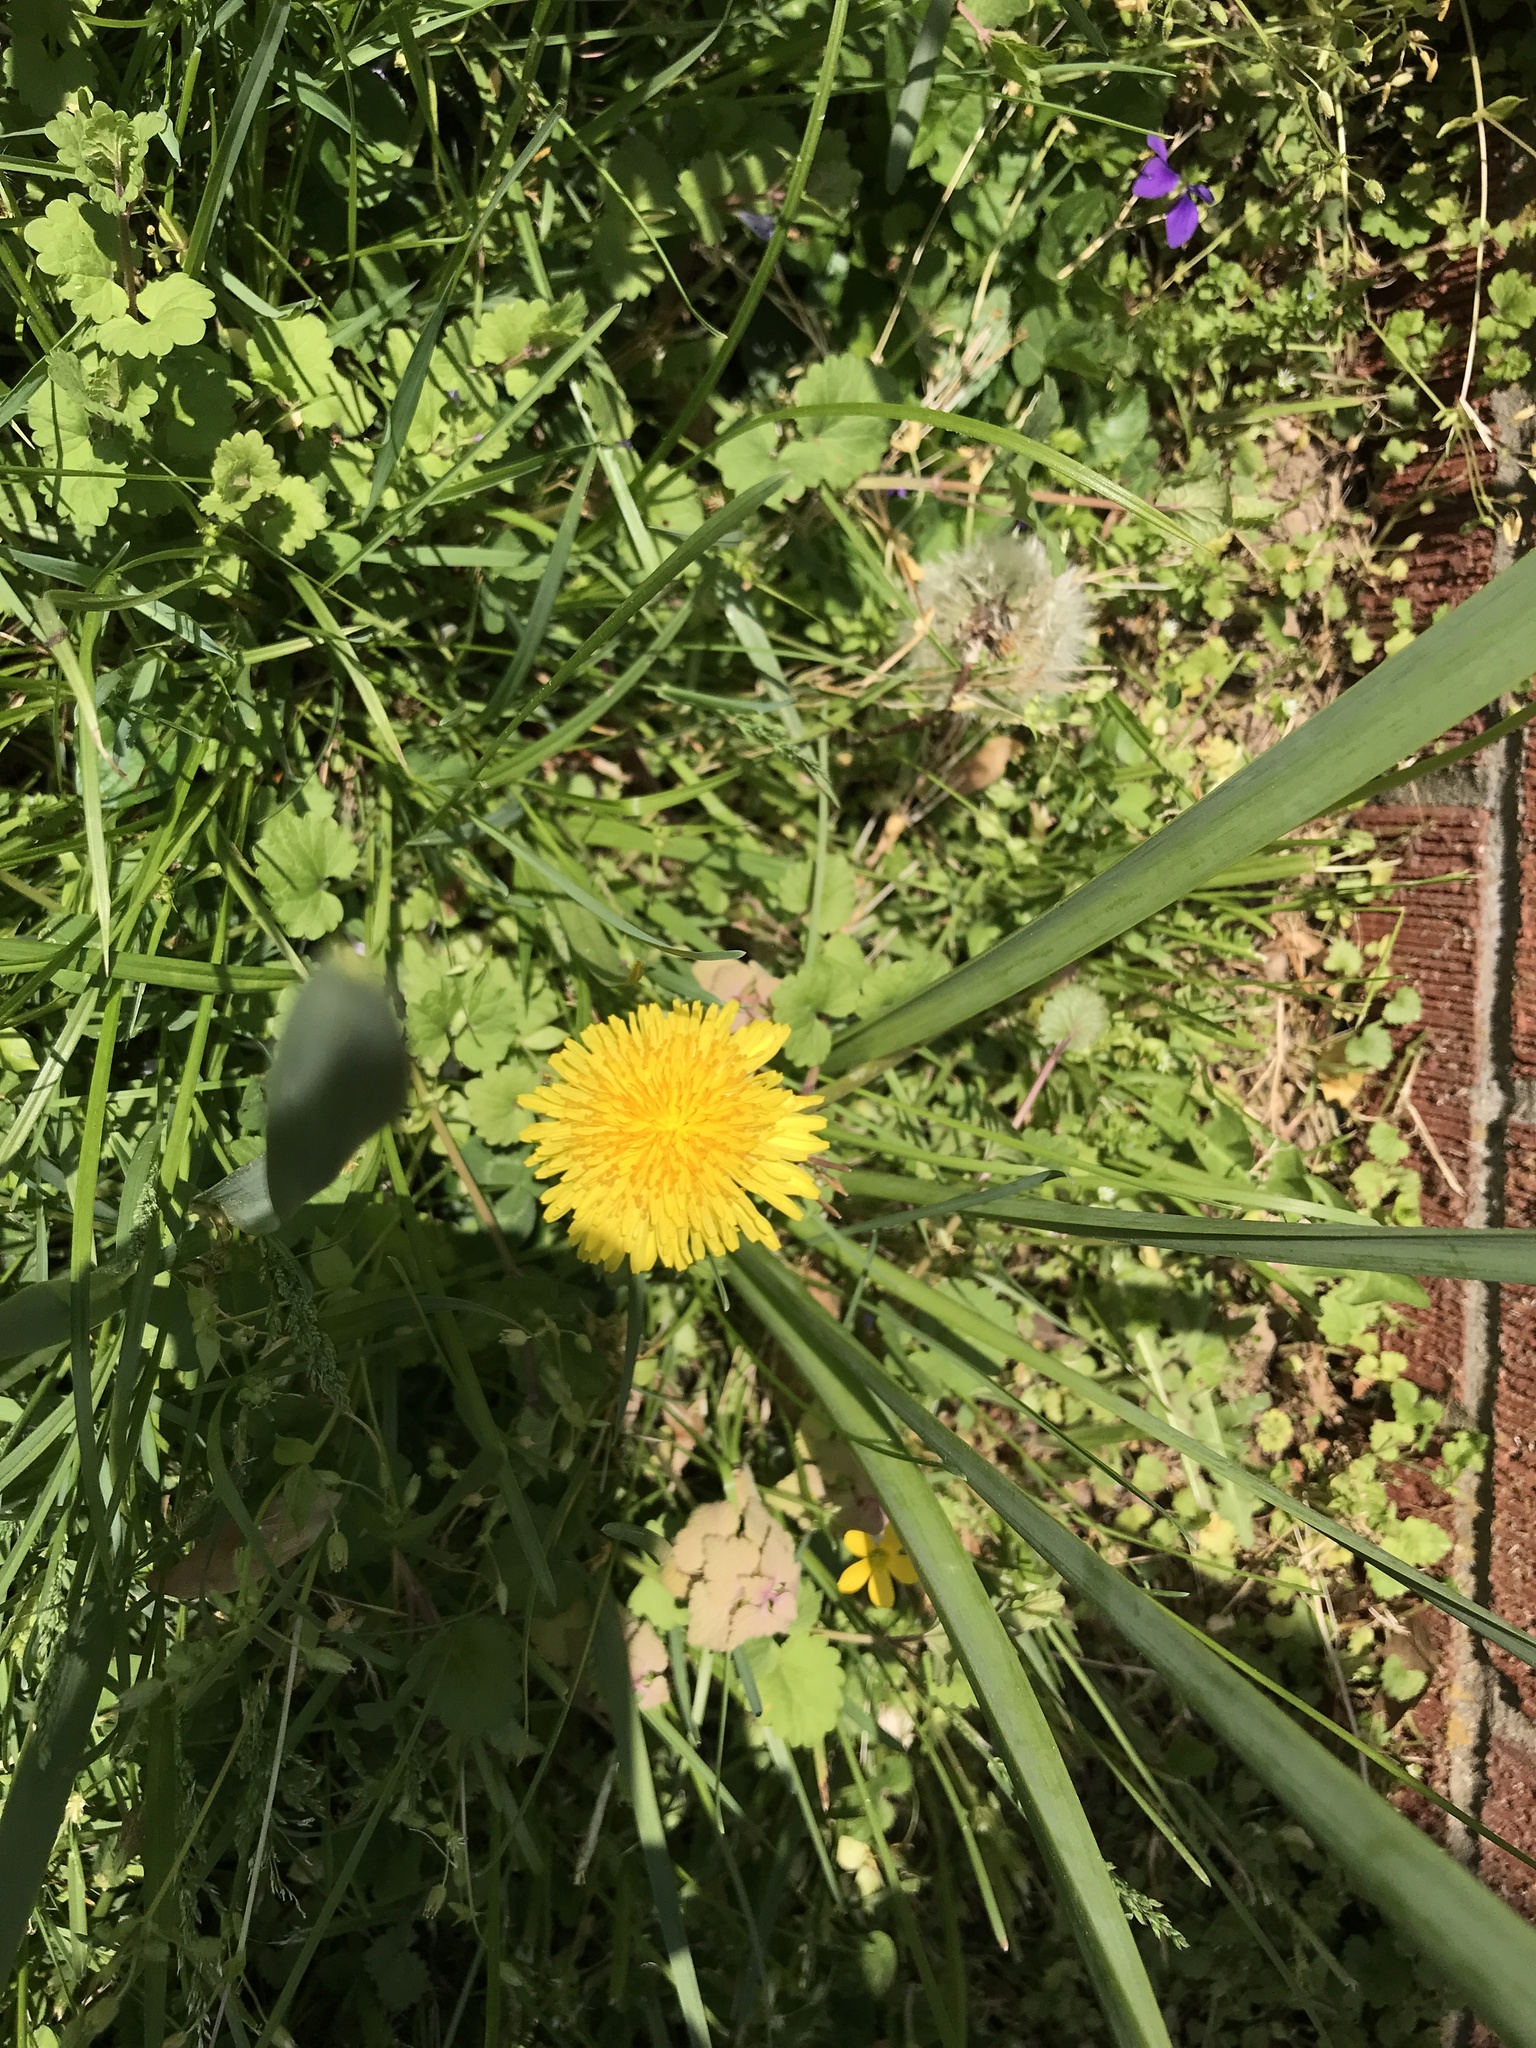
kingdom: Plantae
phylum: Tracheophyta
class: Magnoliopsida
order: Asterales
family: Asteraceae
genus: Taraxacum
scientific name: Taraxacum officinale
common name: Common dandelion
